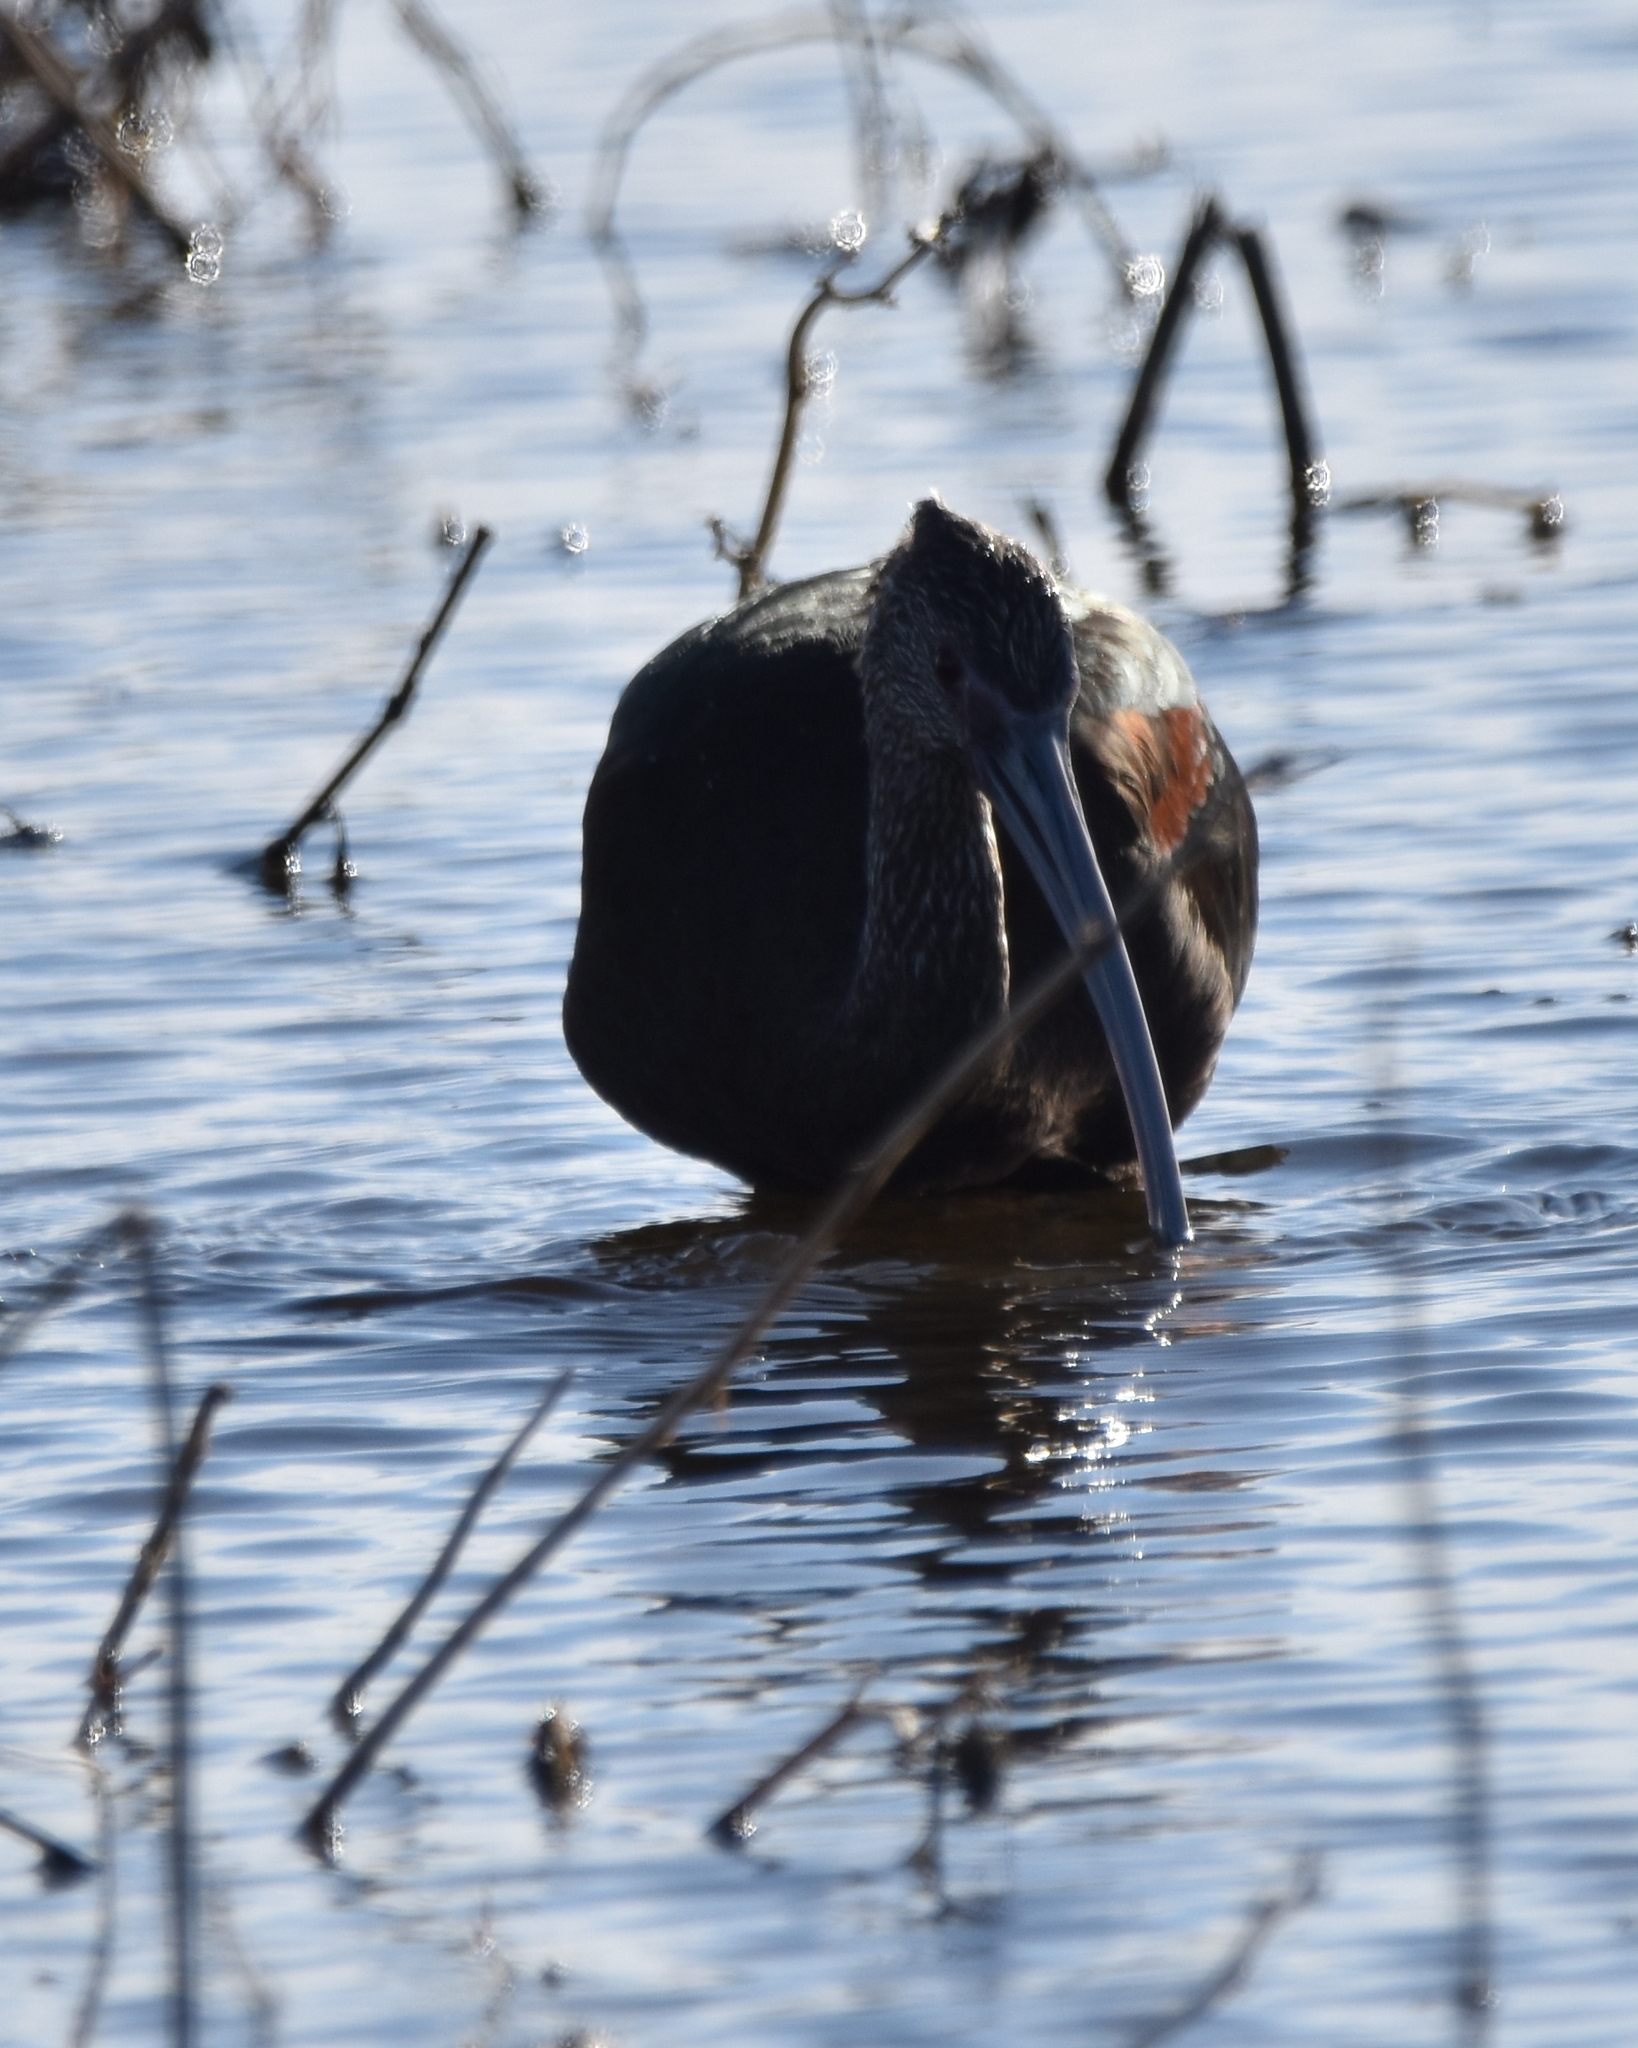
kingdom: Animalia
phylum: Chordata
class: Aves
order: Pelecaniformes
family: Threskiornithidae
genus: Plegadis
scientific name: Plegadis chihi
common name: White-faced ibis
